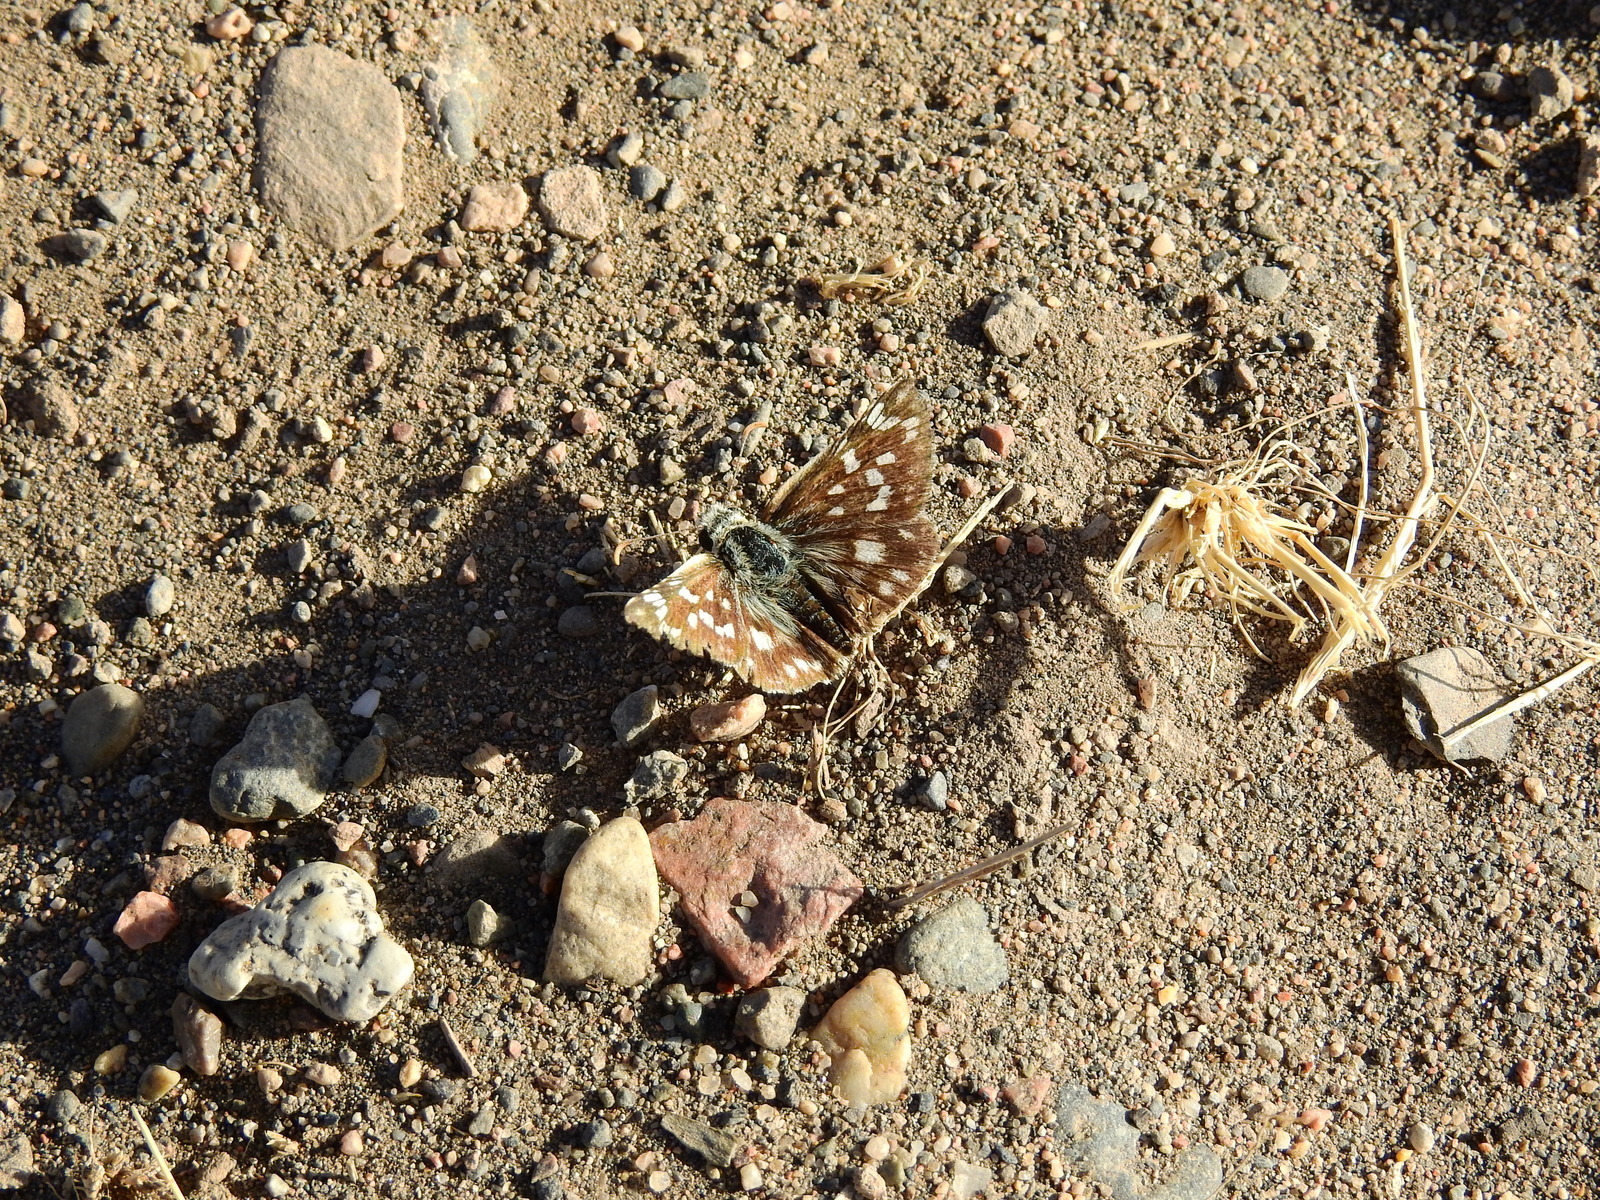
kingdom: Animalia
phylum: Arthropoda
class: Insecta
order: Lepidoptera
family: Hesperiidae
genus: Chirgus
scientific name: Chirgus fides
